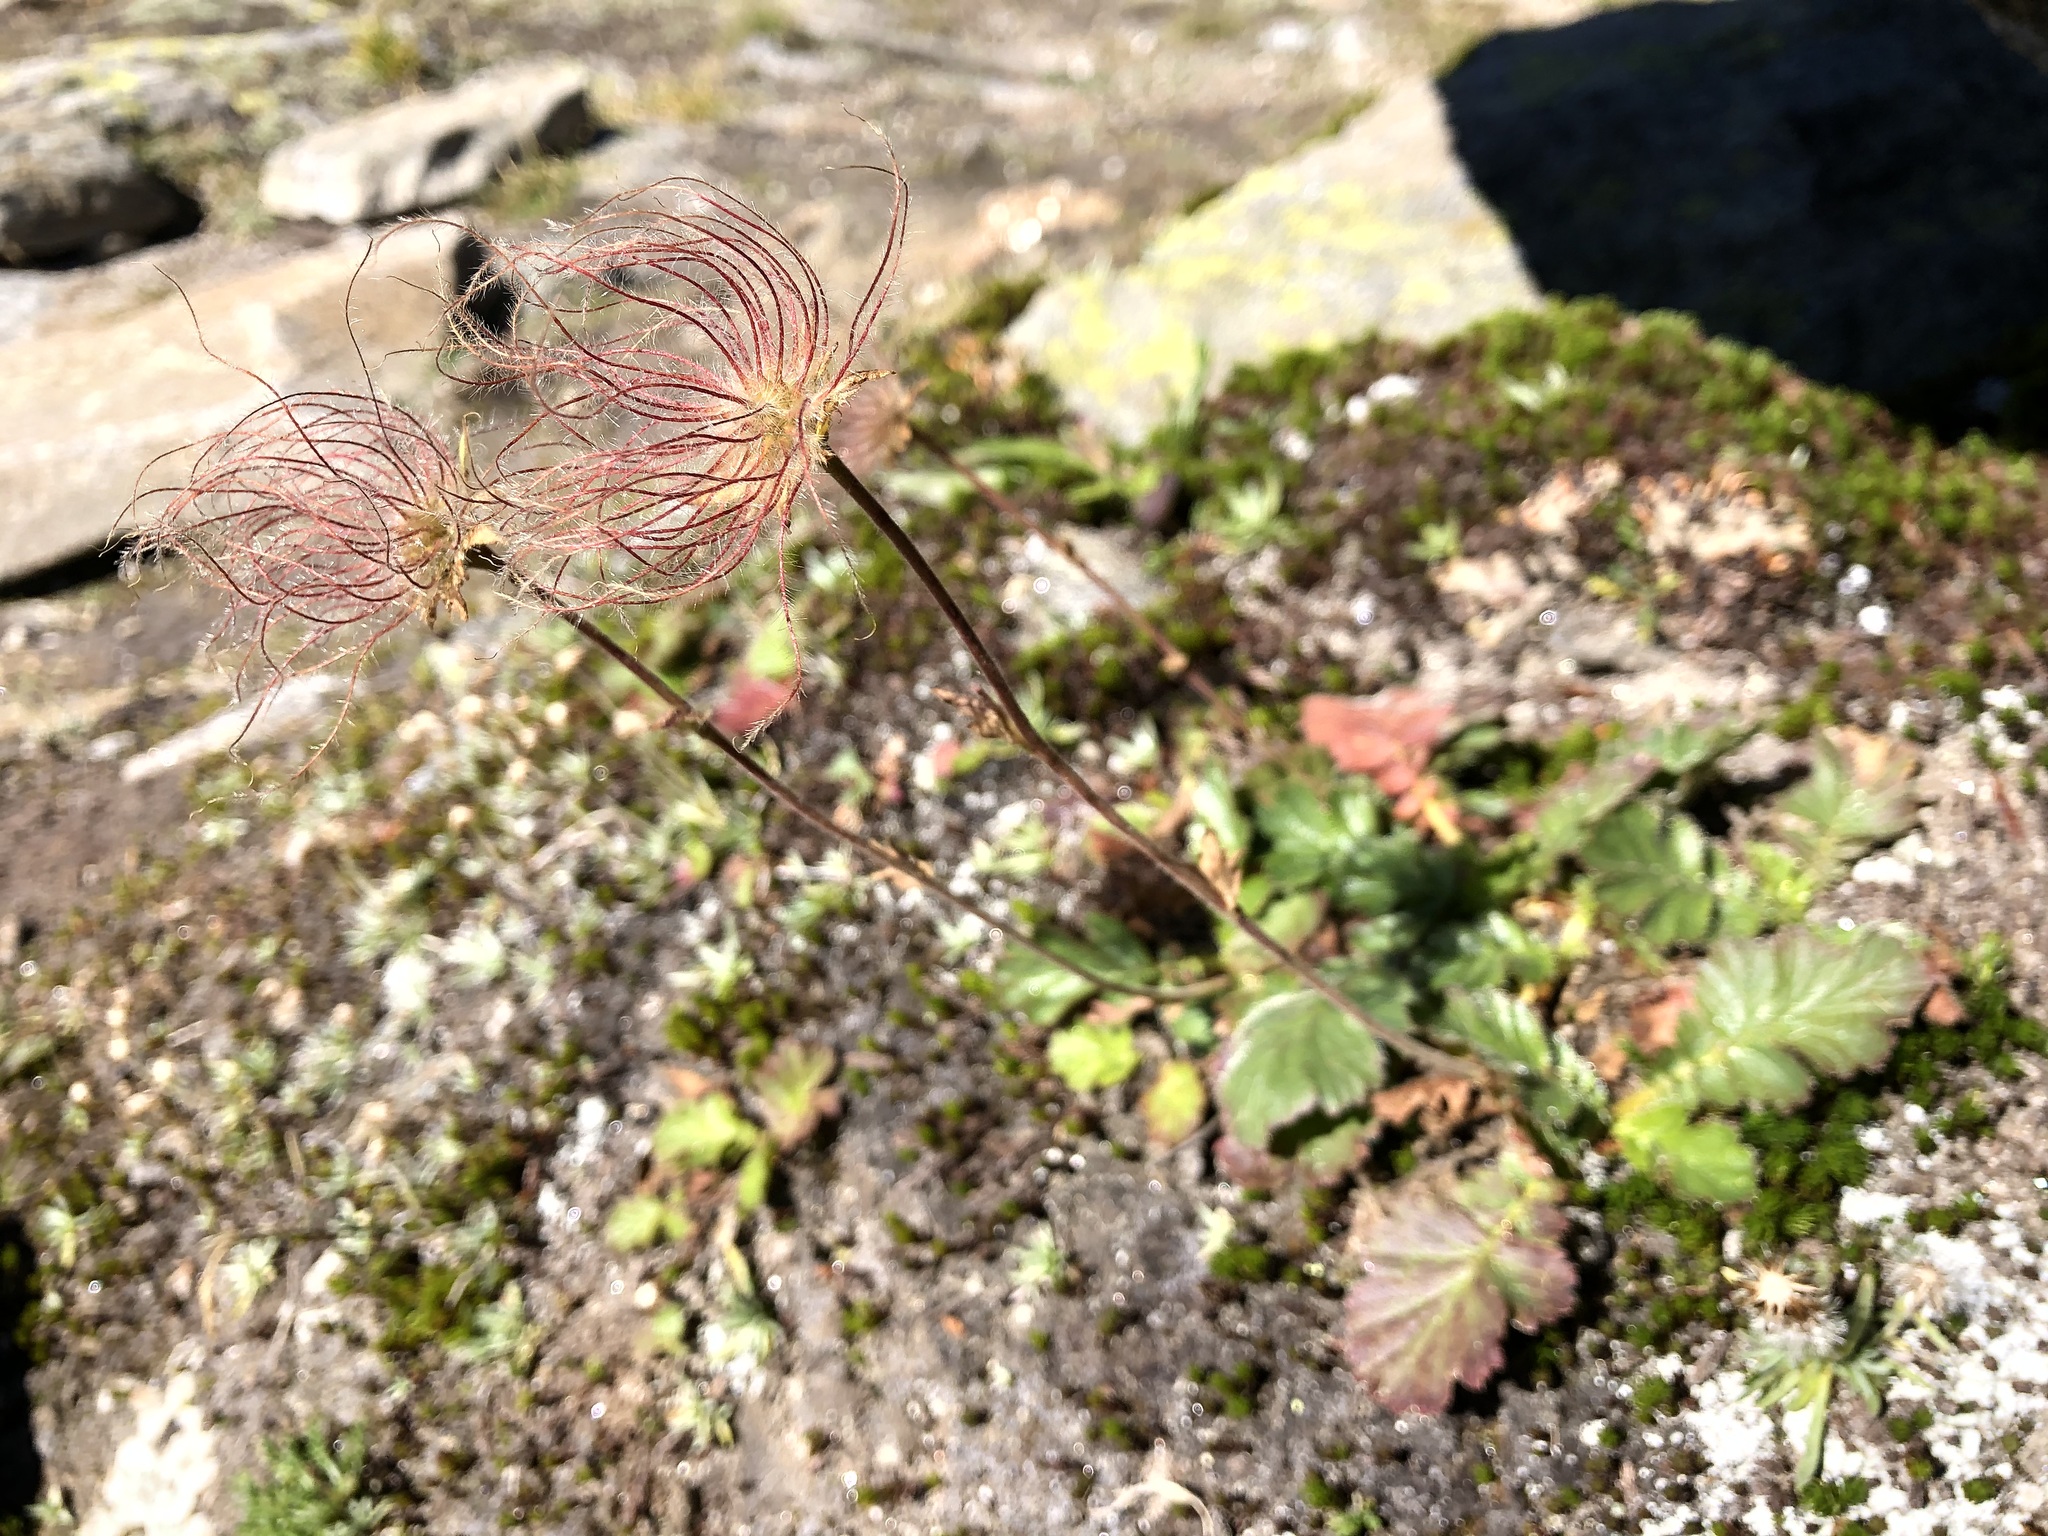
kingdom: Plantae
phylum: Tracheophyta
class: Magnoliopsida
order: Rosales
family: Rosaceae
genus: Geum
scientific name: Geum montanum
